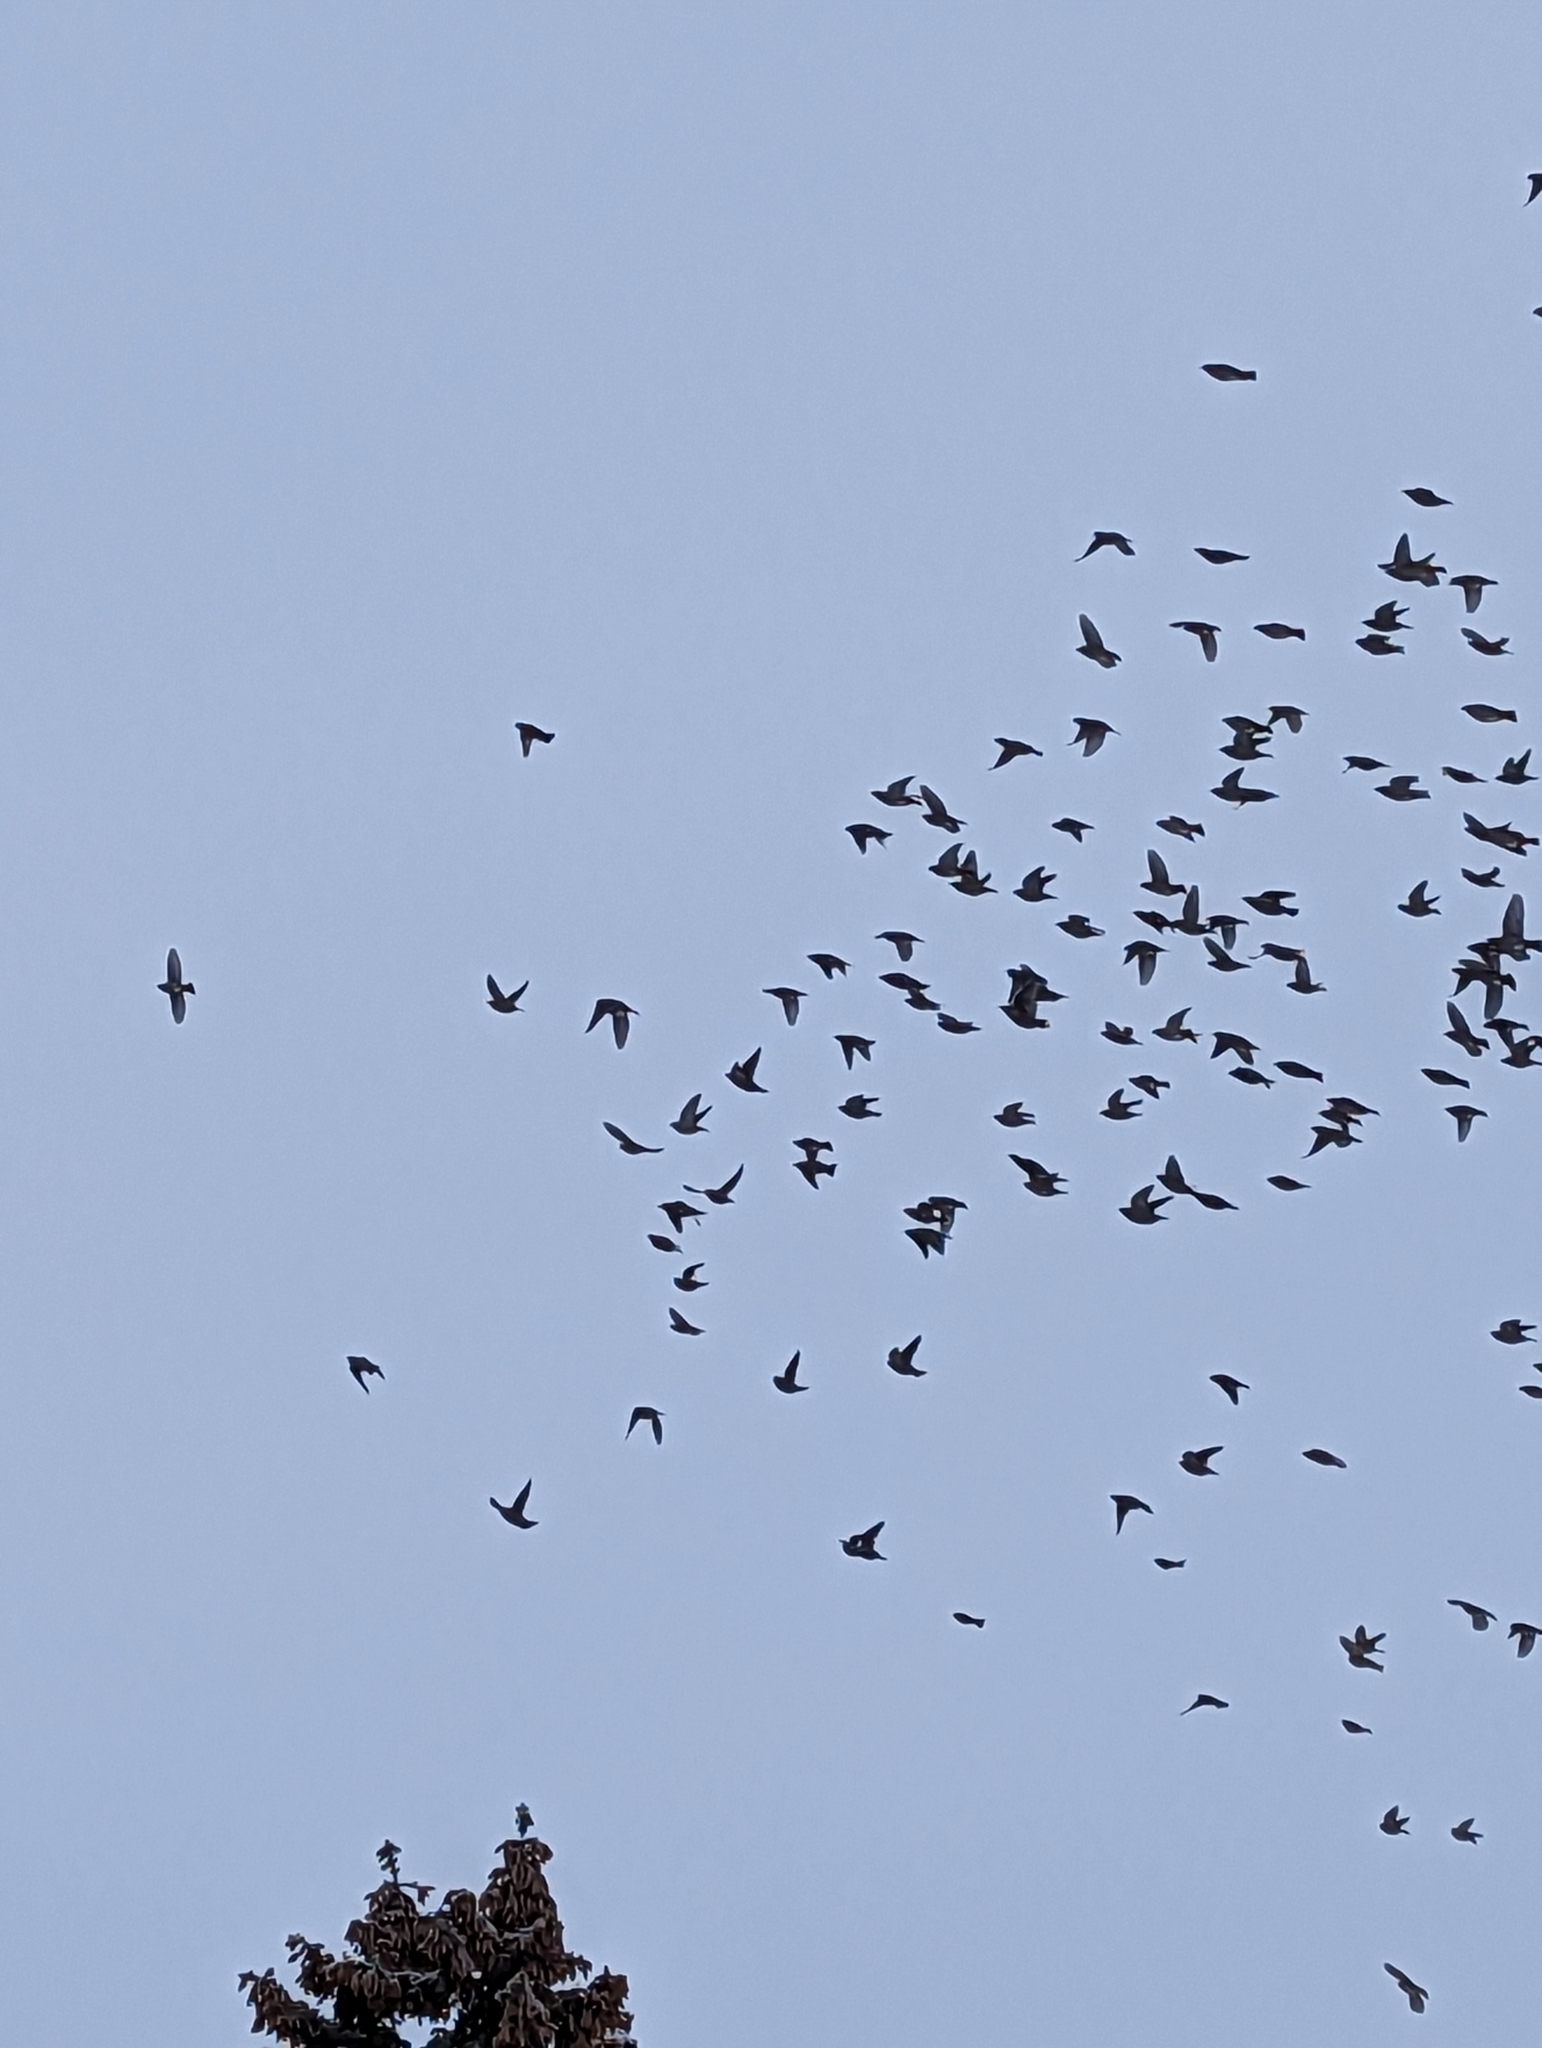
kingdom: Animalia
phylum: Chordata
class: Aves
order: Passeriformes
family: Bombycillidae
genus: Bombycilla
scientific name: Bombycilla garrulus
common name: Bohemian waxwing
